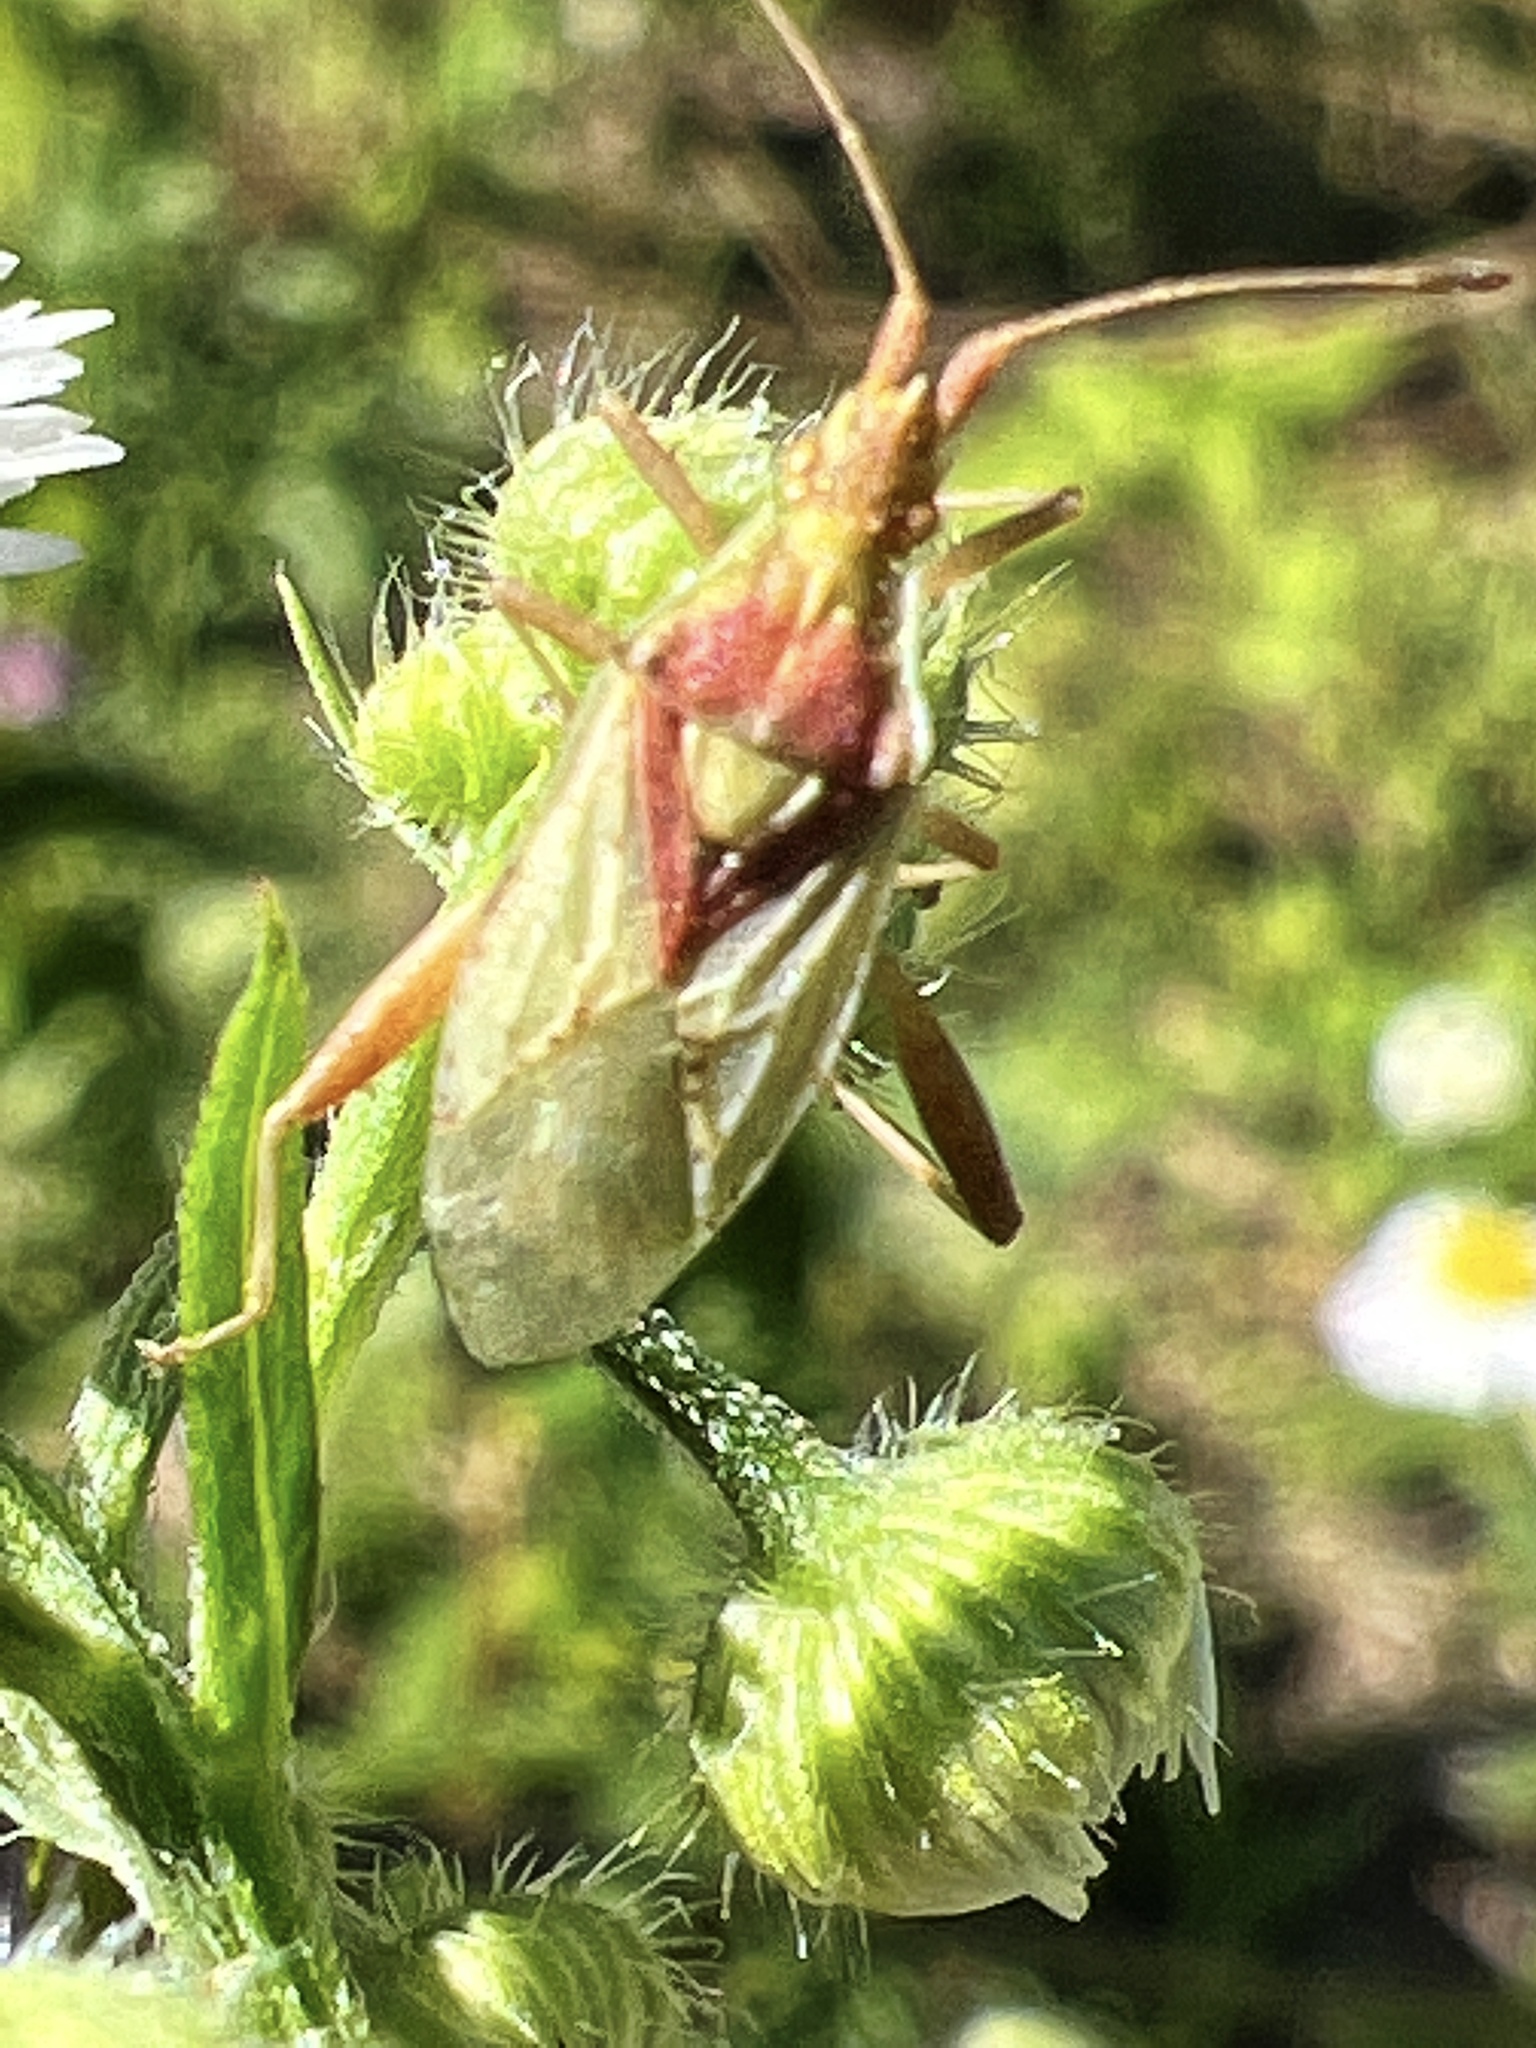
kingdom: Animalia
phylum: Arthropoda
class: Insecta
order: Hemiptera
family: Rhopalidae
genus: Harmostes
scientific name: Harmostes reflexulus
